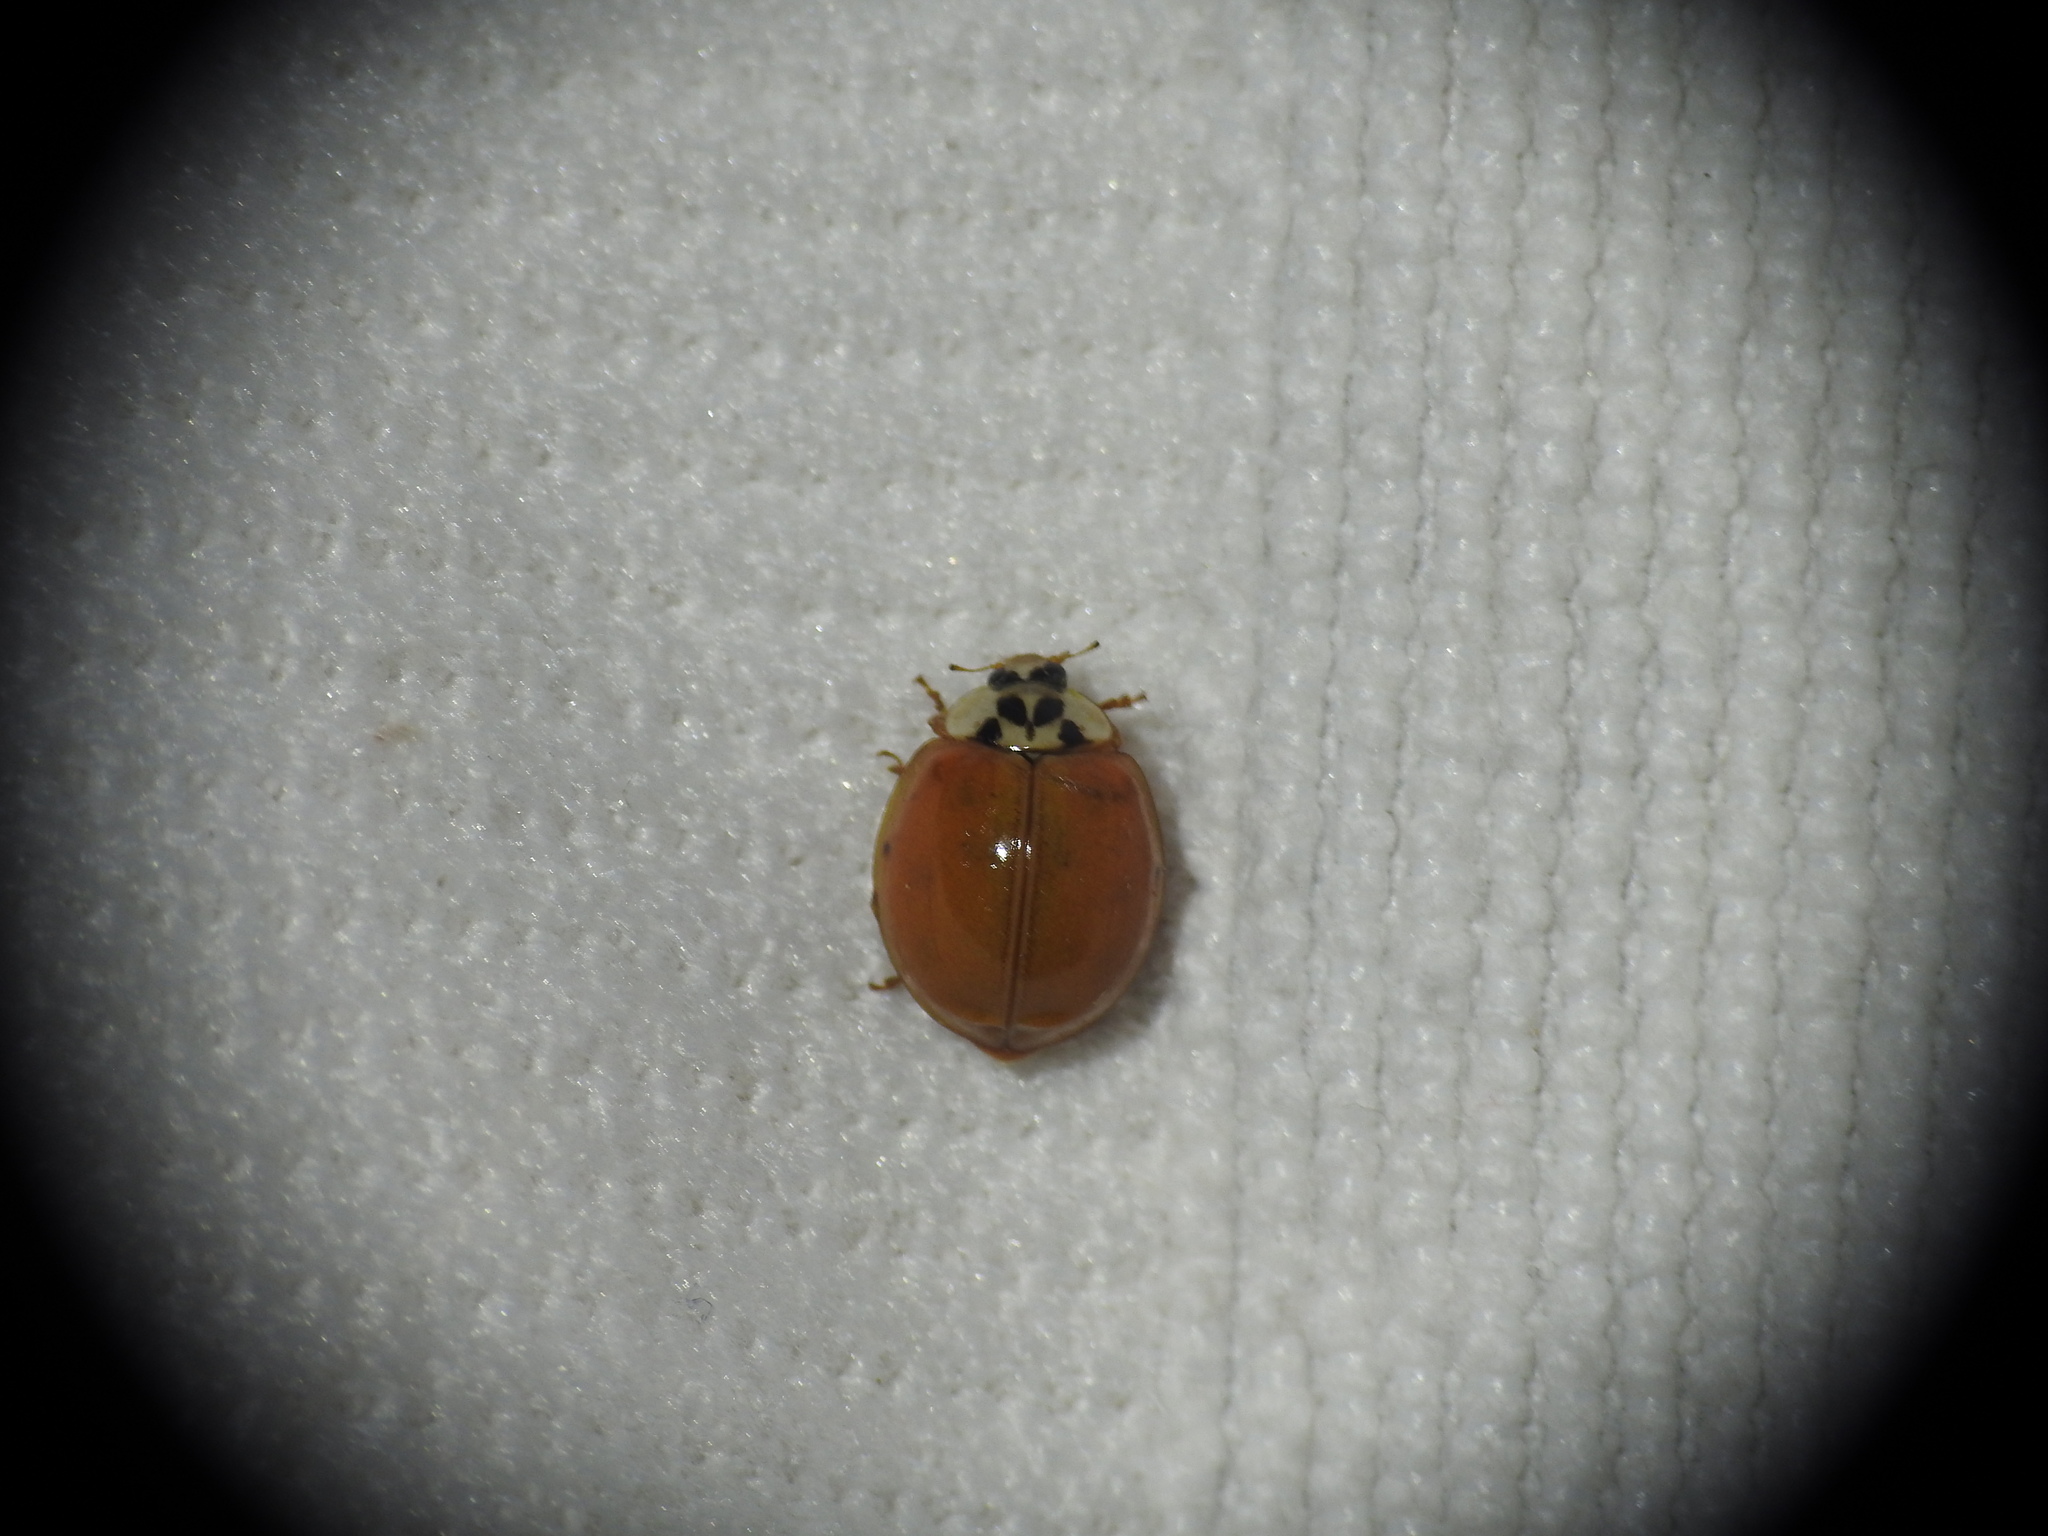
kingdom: Animalia
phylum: Arthropoda
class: Insecta
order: Coleoptera
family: Coccinellidae
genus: Harmonia
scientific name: Harmonia axyridis
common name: Harlequin ladybird
